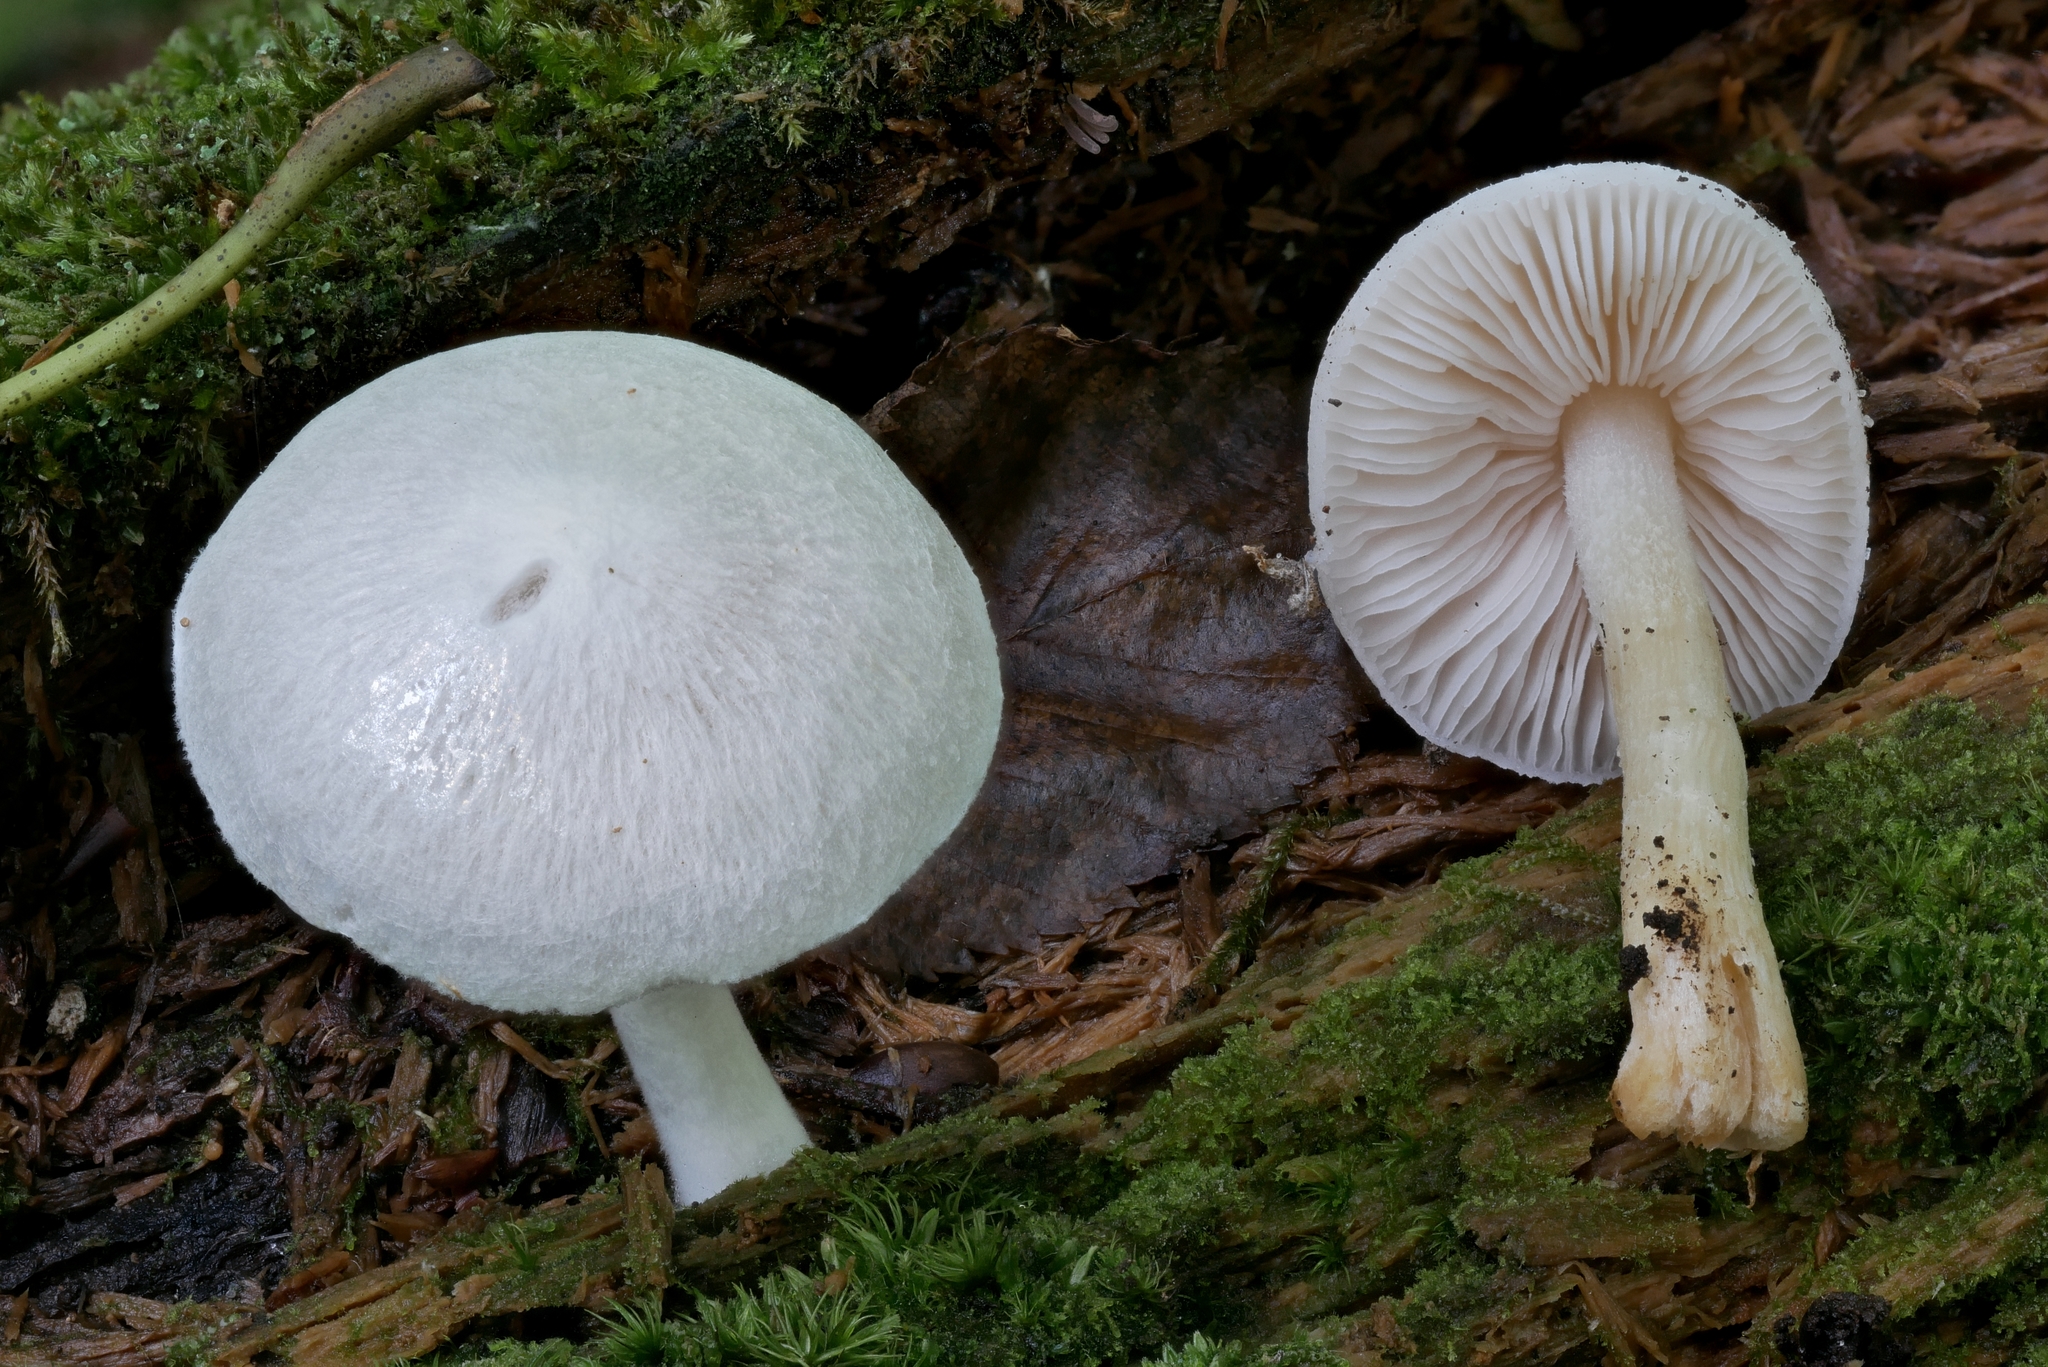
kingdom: Fungi
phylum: Basidiomycota
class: Agaricomycetes
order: Agaricales
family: Pluteaceae
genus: Pluteus
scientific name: Pluteus tomentosulus
